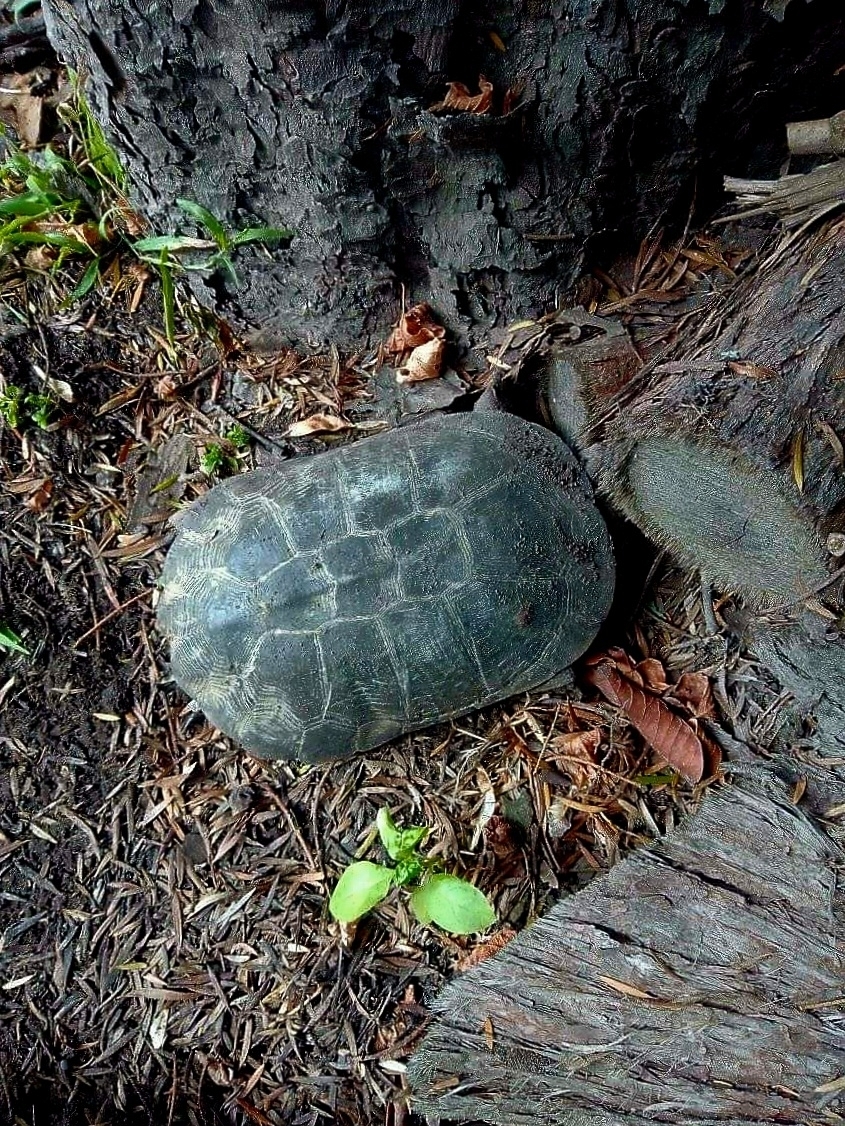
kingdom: Animalia
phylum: Chordata
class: Testudines
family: Pelomedusidae
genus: Pelomedusa
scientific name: Pelomedusa galeata
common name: South african helmeted terrapin
